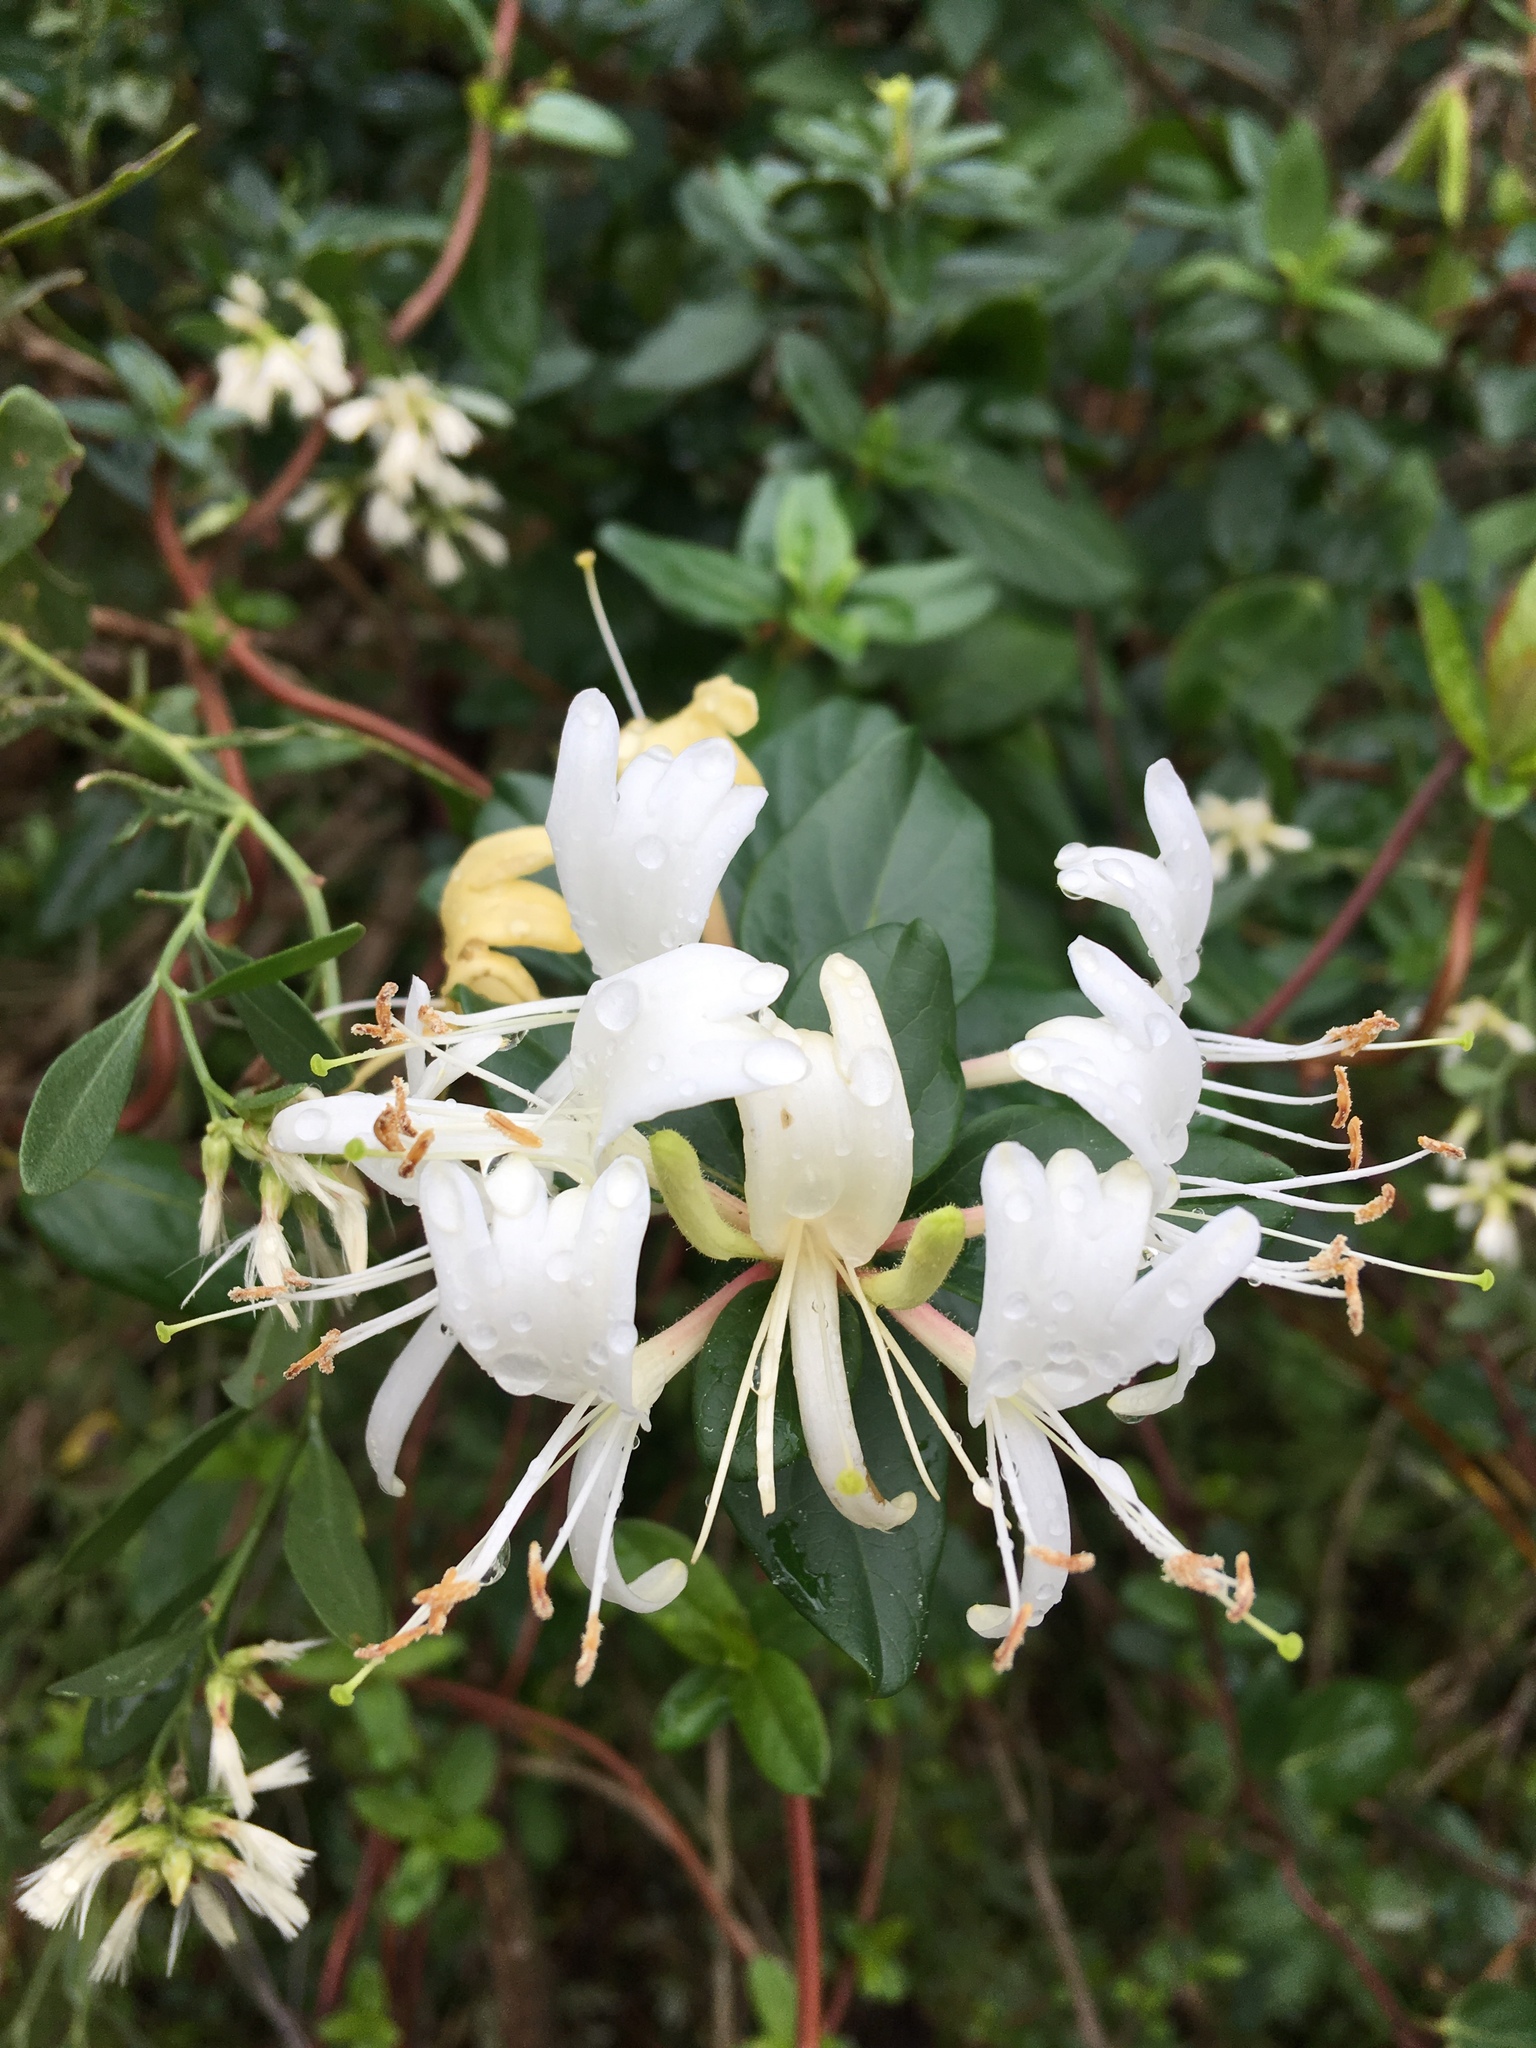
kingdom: Plantae
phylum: Tracheophyta
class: Magnoliopsida
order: Dipsacales
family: Caprifoliaceae
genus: Lonicera
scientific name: Lonicera japonica
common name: Japanese honeysuckle
